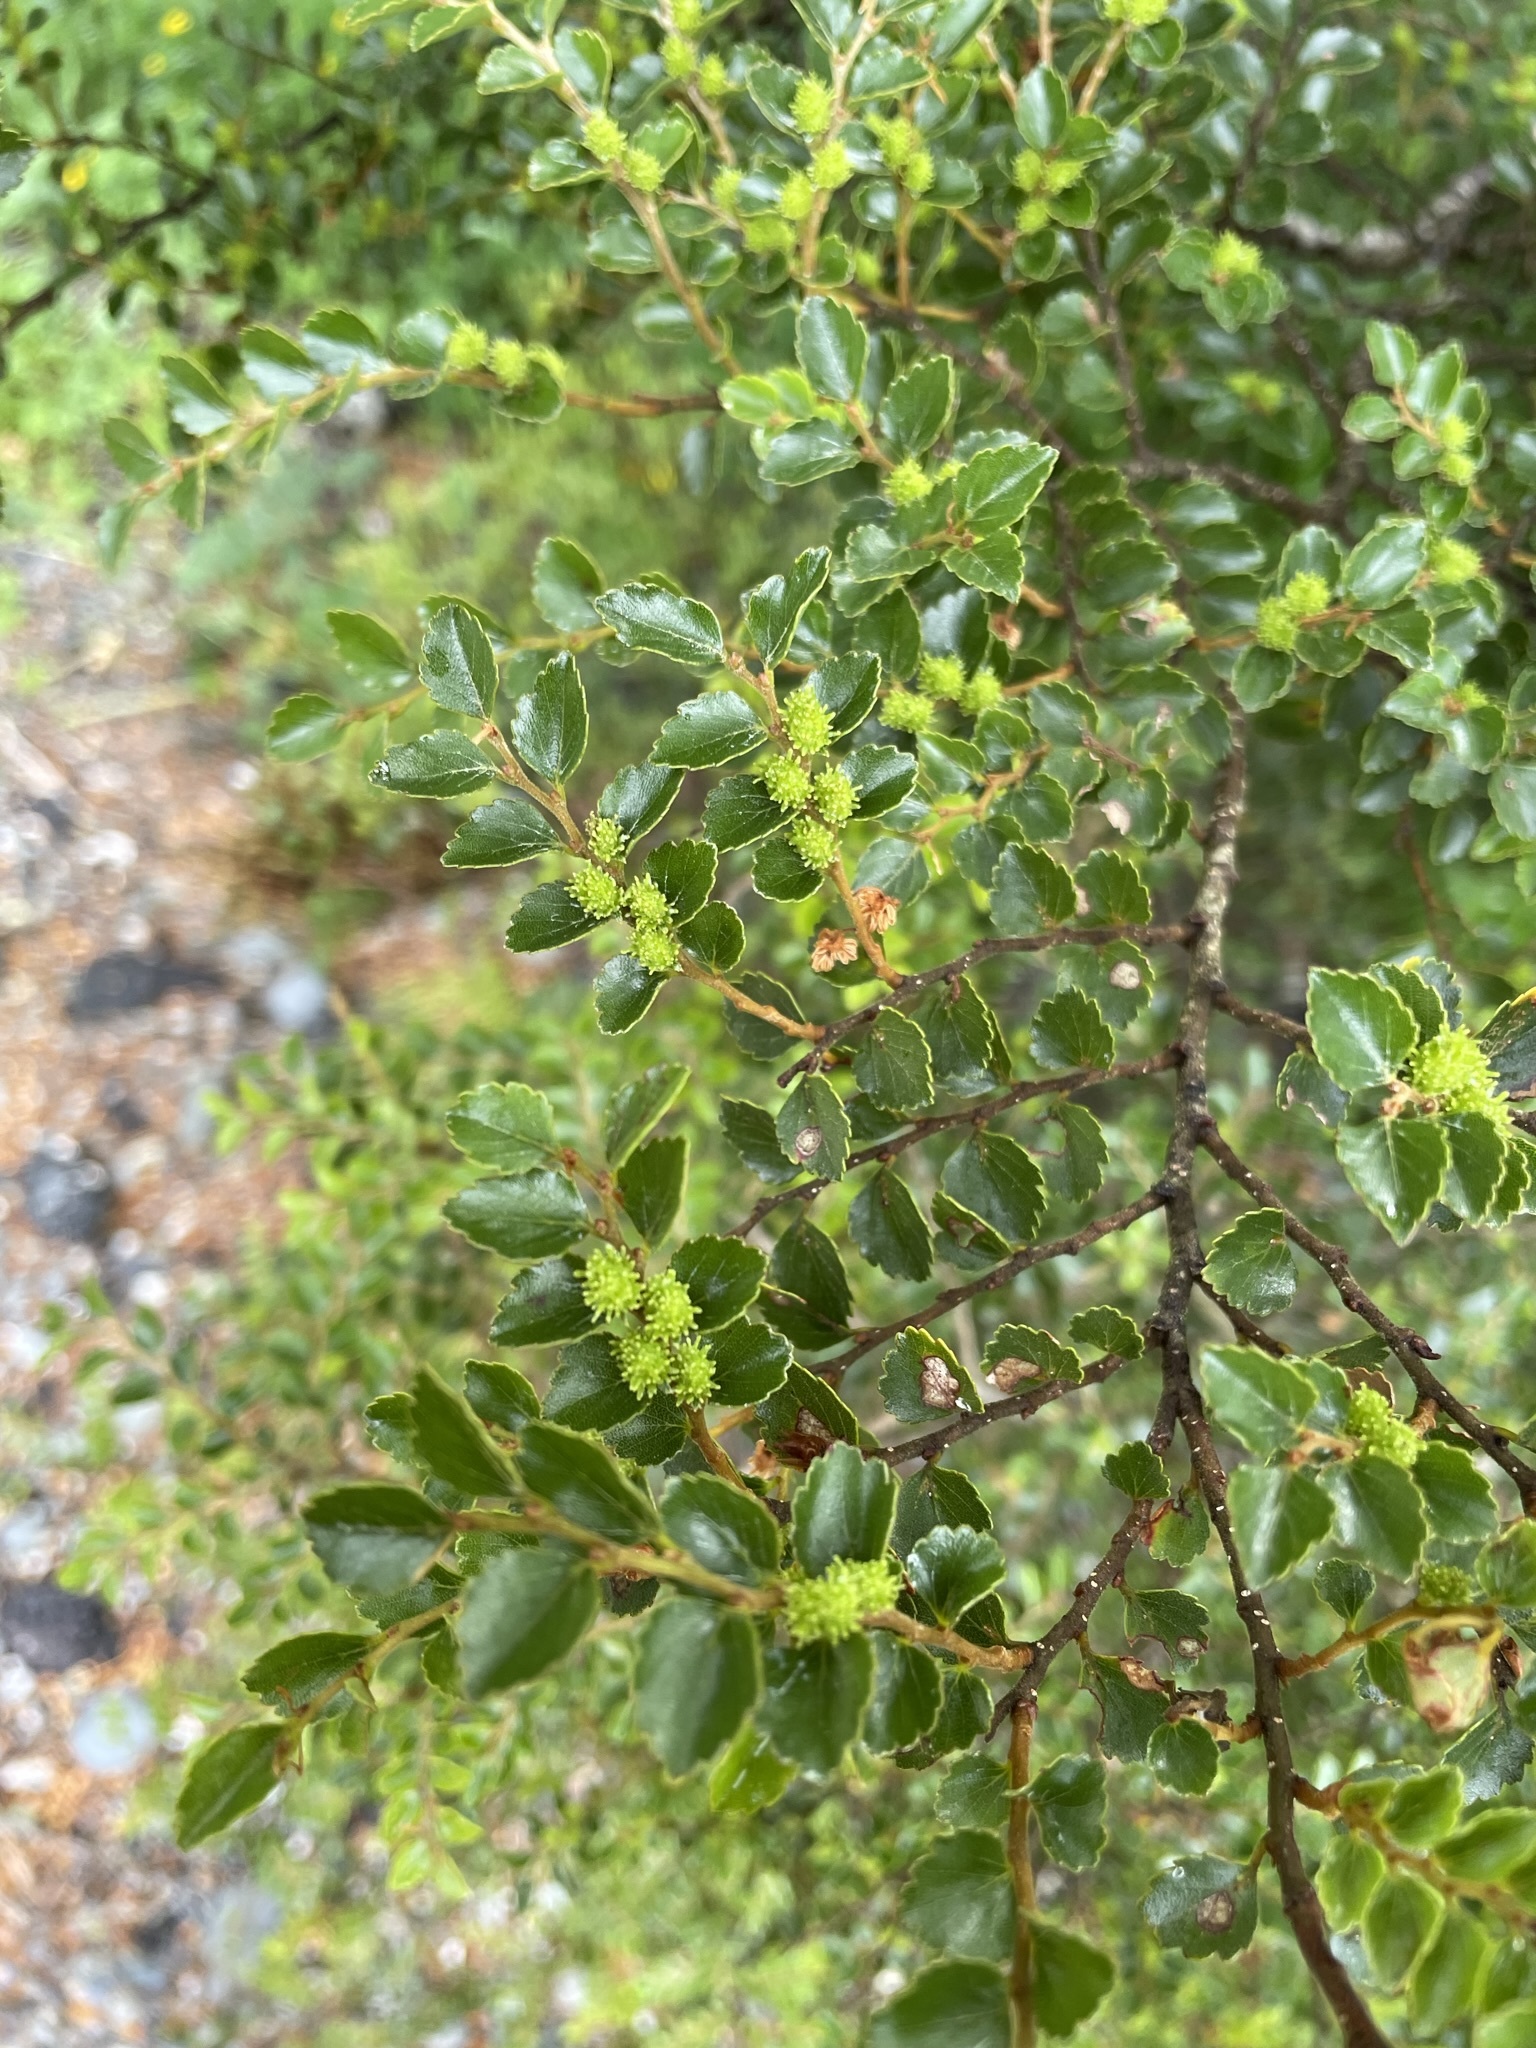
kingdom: Plantae
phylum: Tracheophyta
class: Magnoliopsida
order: Fagales
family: Nothofagaceae
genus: Nothofagus
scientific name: Nothofagus menziesii
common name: Silver beech
